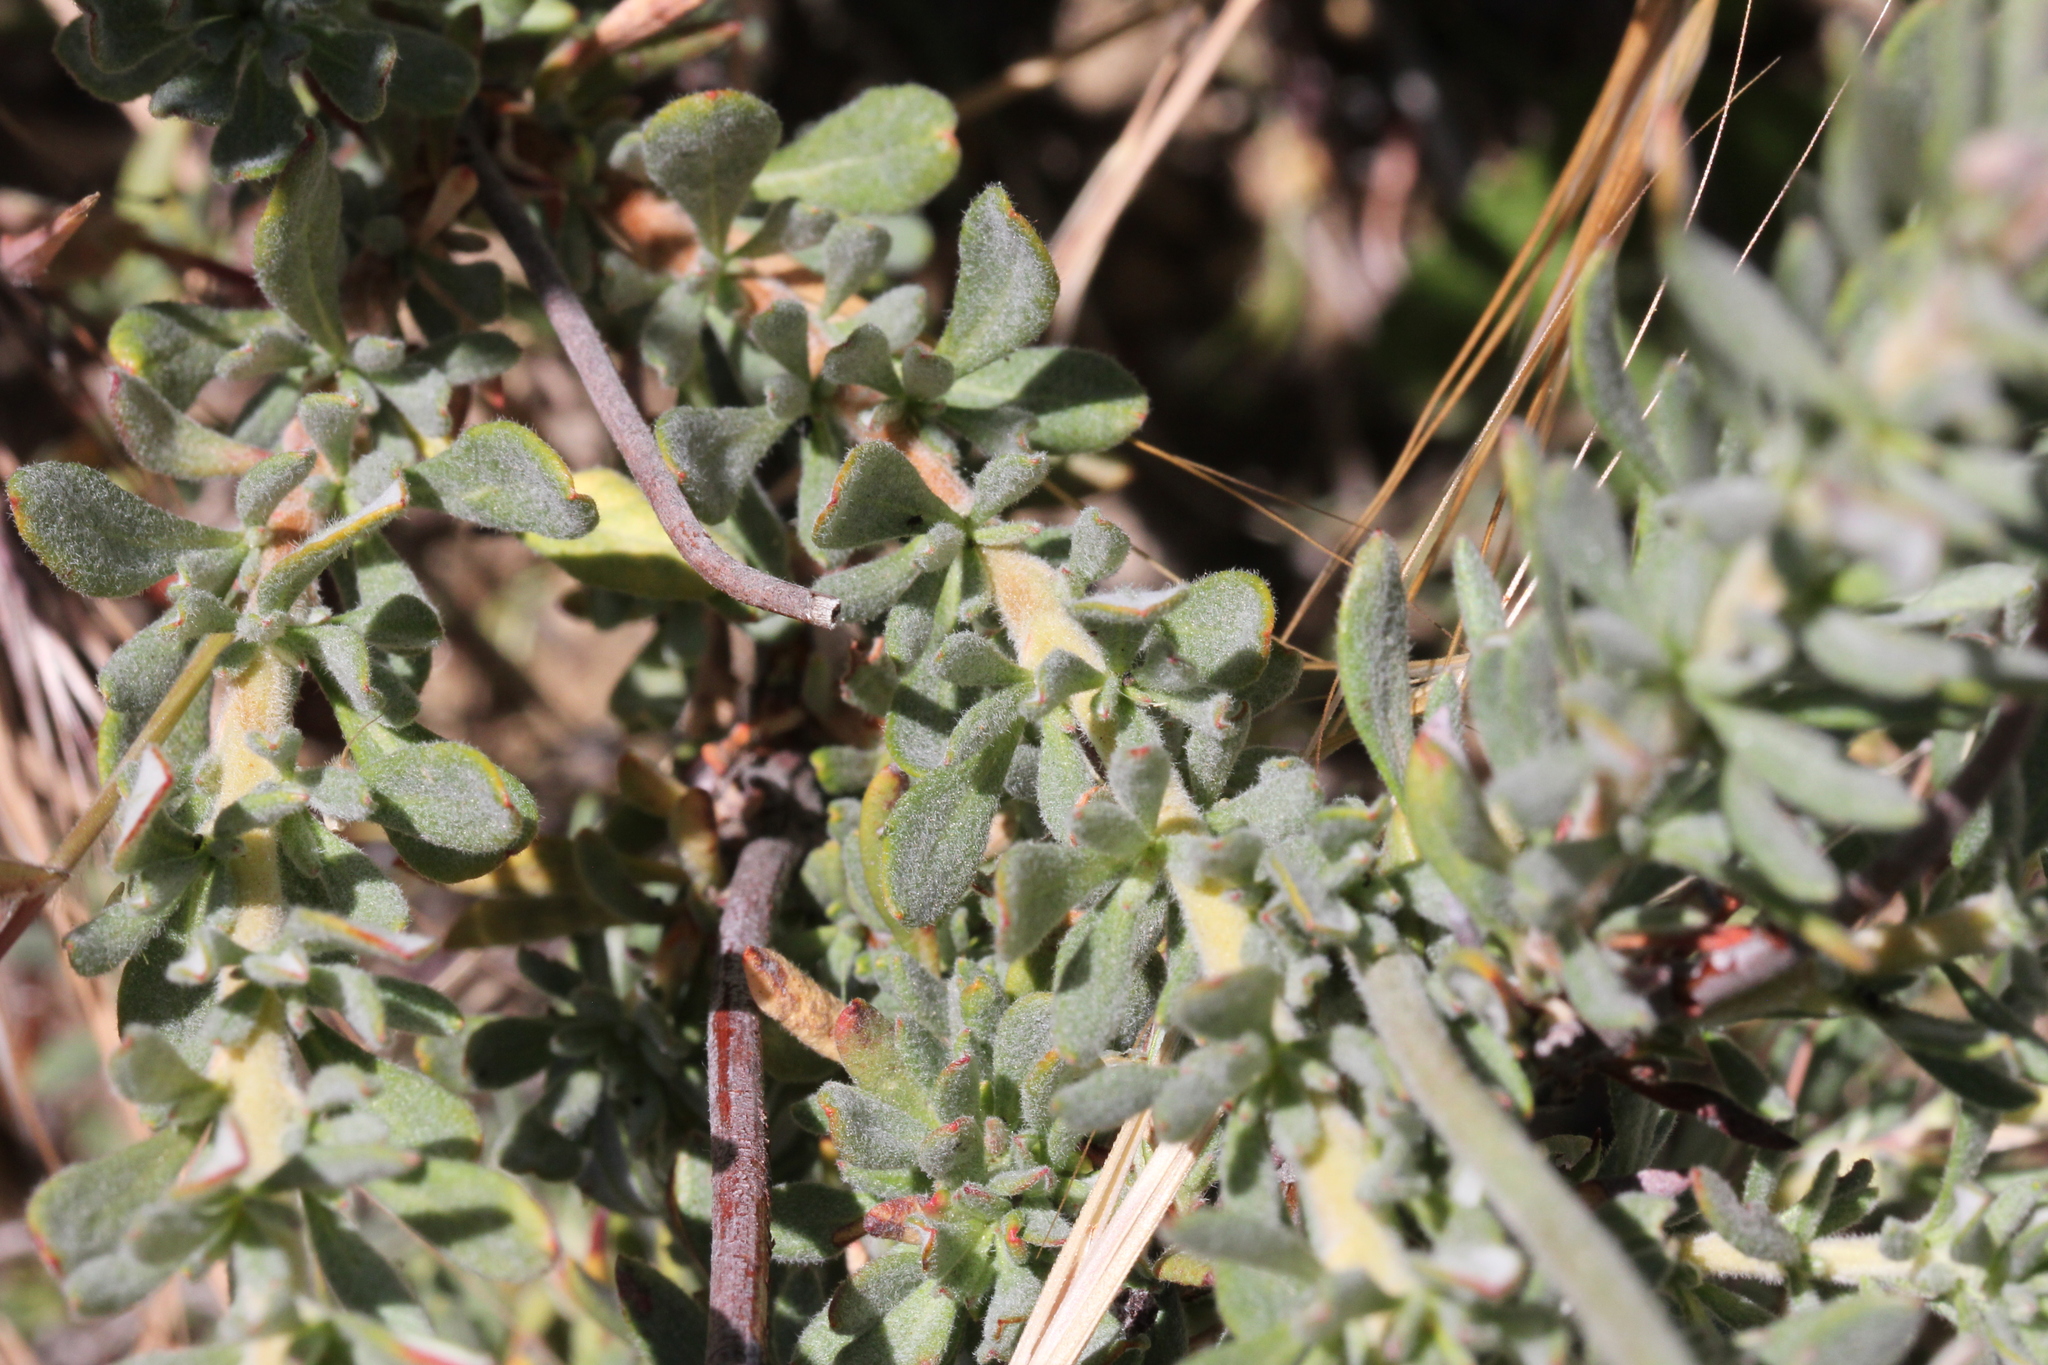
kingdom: Plantae
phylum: Tracheophyta
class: Magnoliopsida
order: Caryophyllales
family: Polygonaceae
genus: Eriogonum
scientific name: Eriogonum fasciculatum
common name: California wild buckwheat
